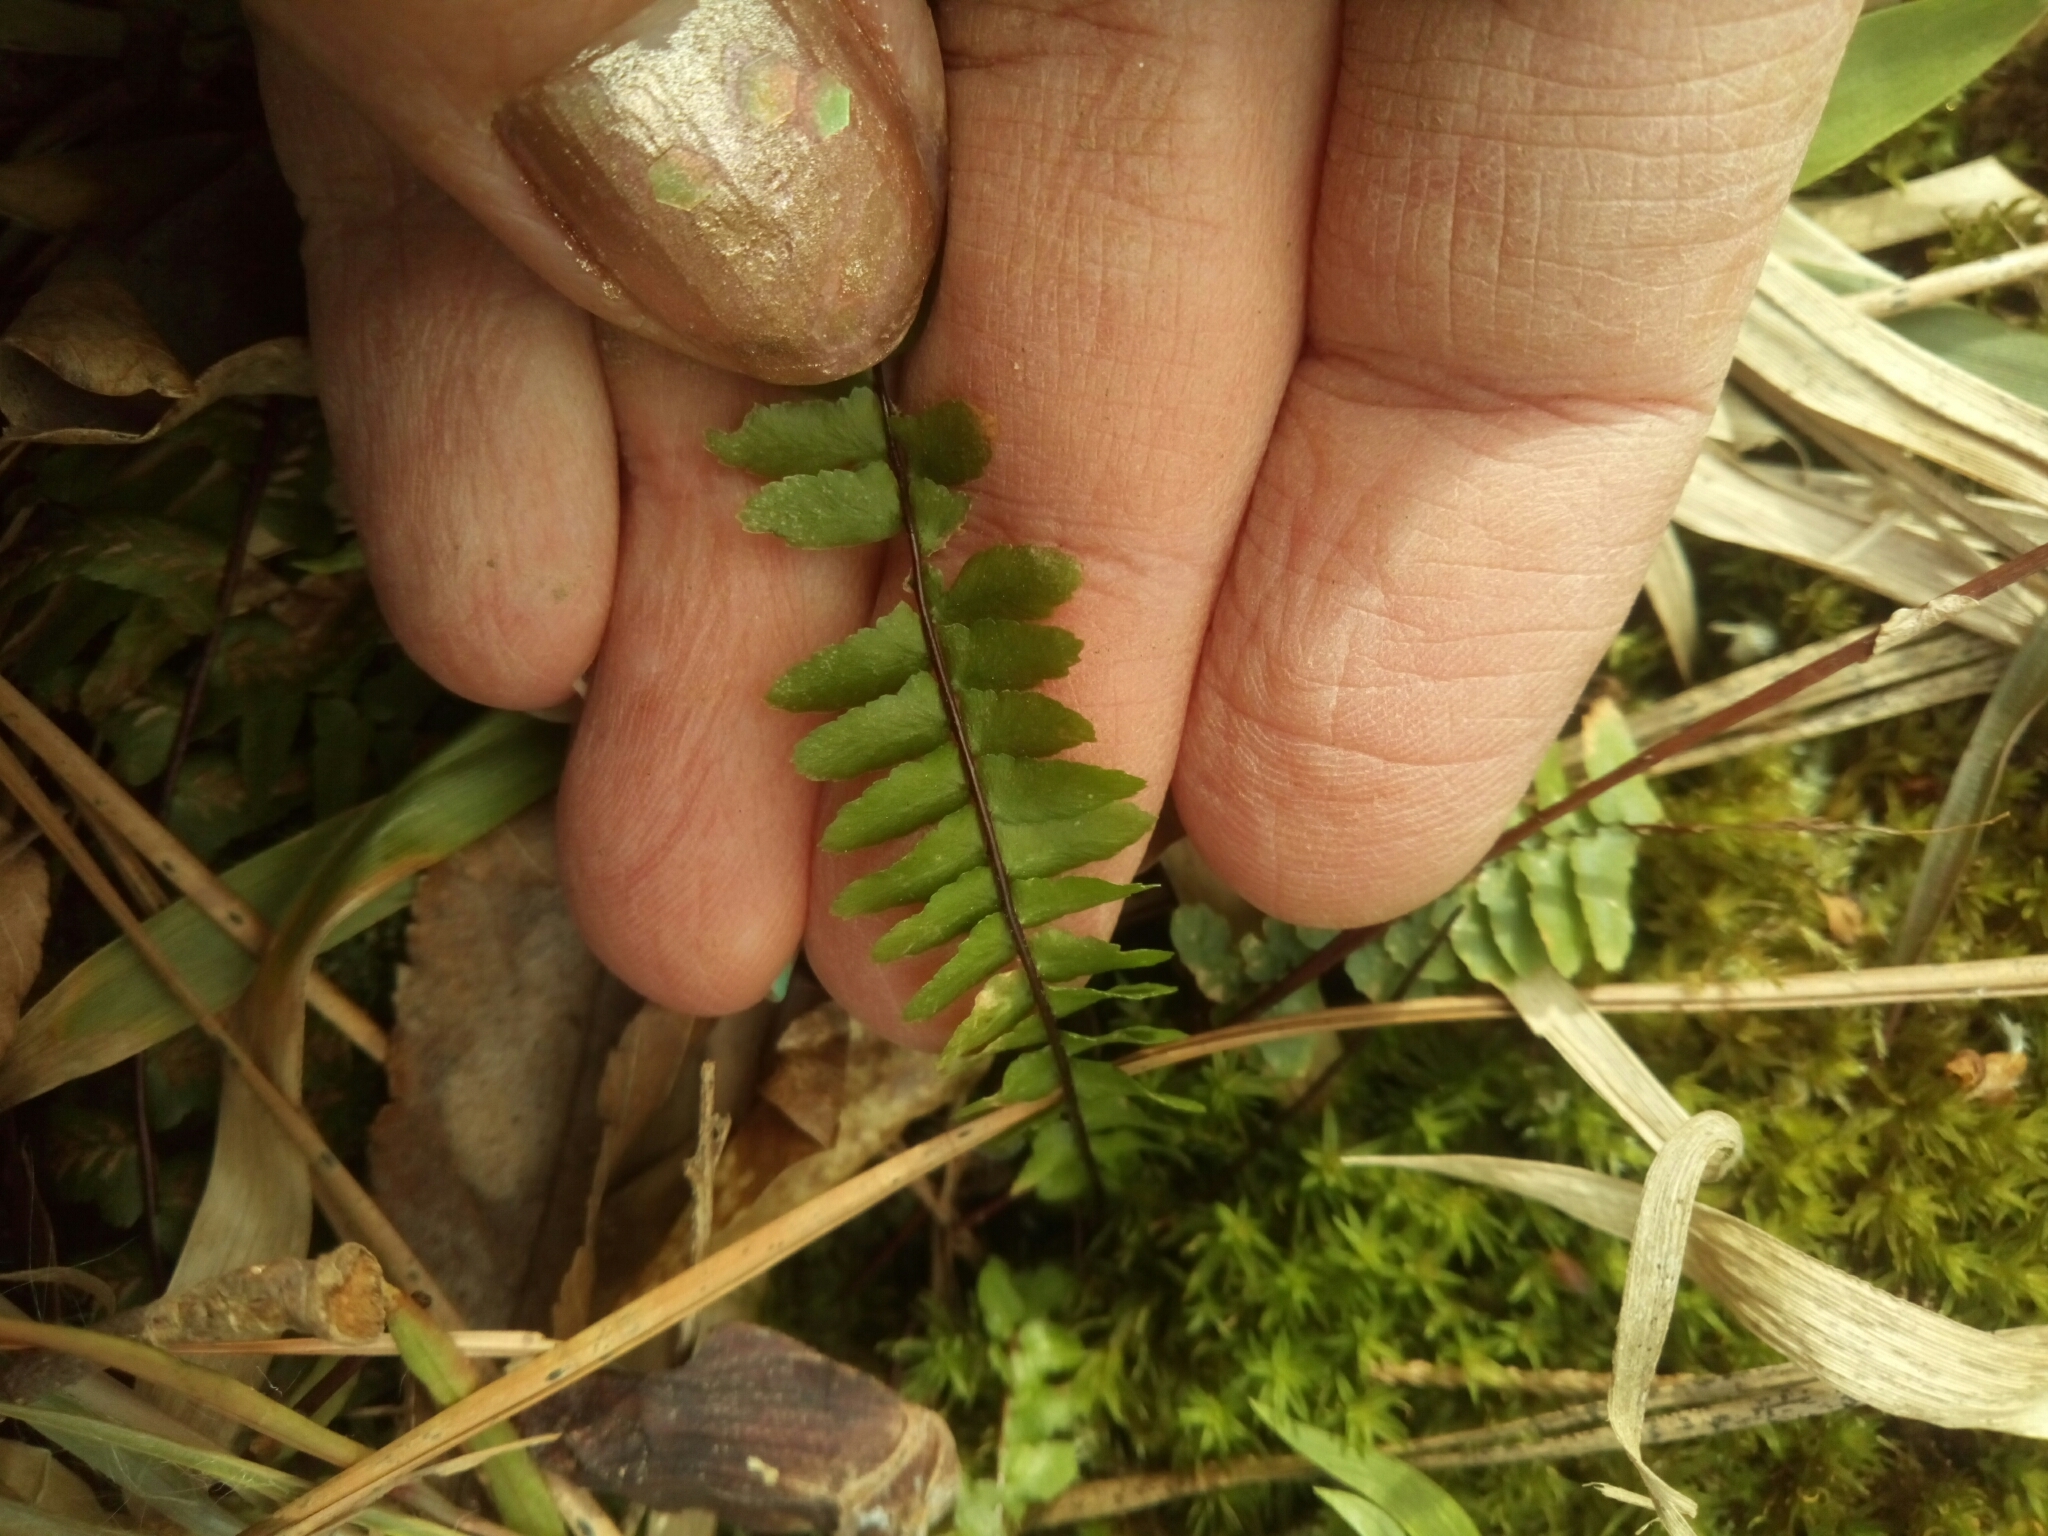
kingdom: Plantae
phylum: Tracheophyta
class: Polypodiopsida
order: Polypodiales
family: Aspleniaceae
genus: Asplenium
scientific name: Asplenium platyneuron
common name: Ebony spleenwort
